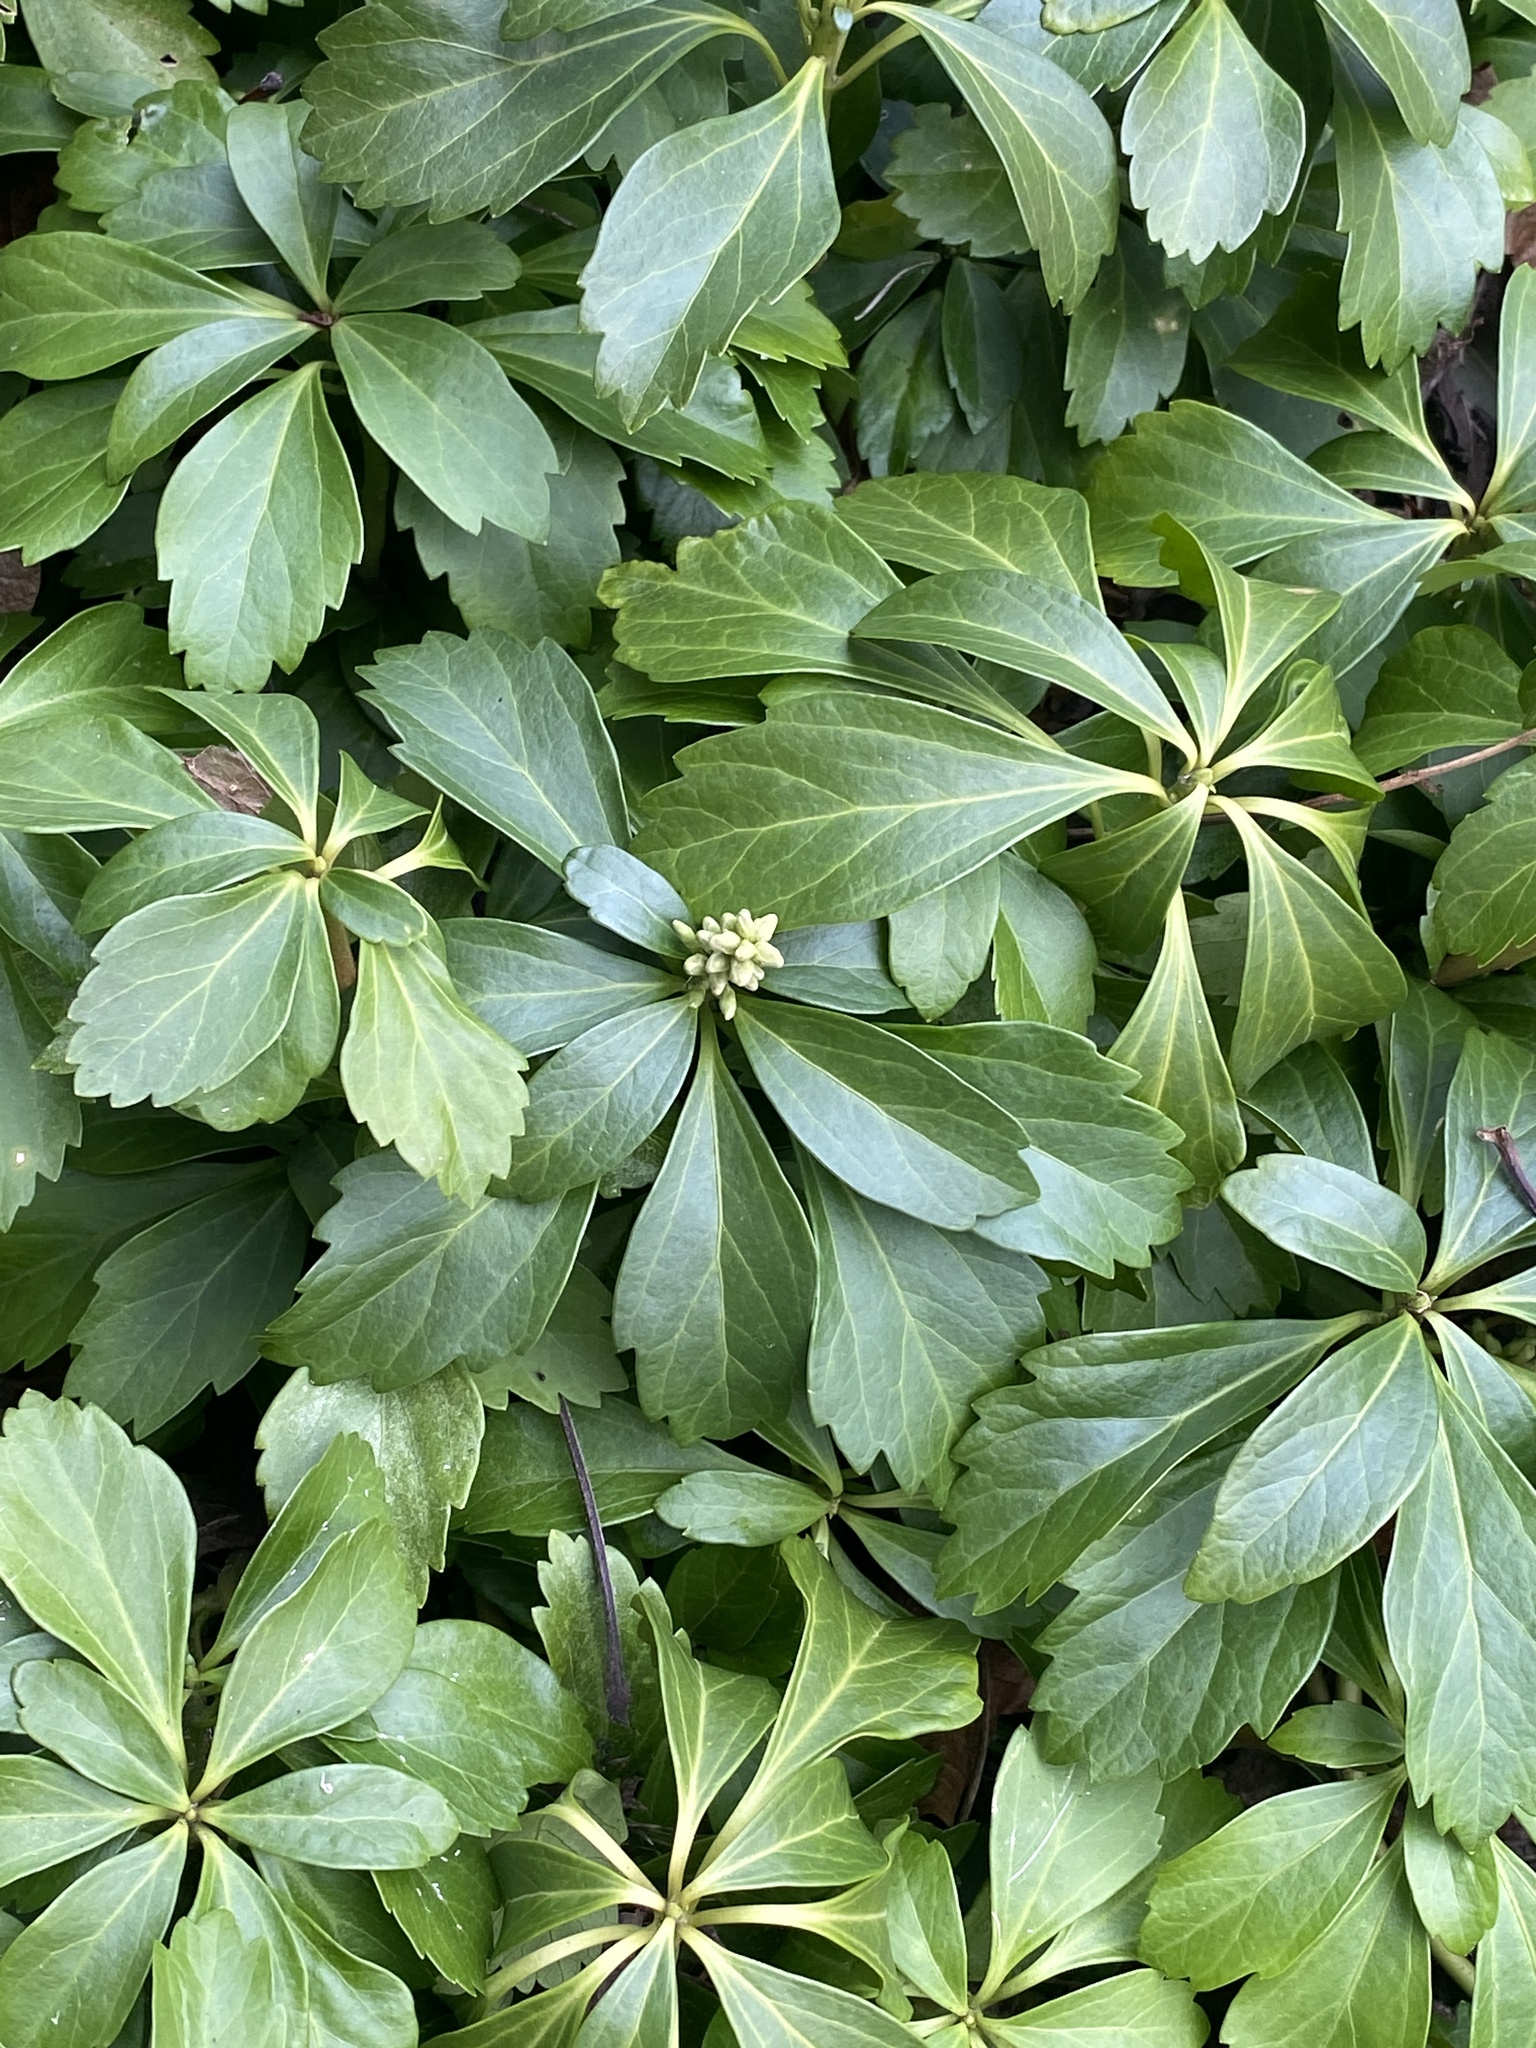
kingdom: Plantae
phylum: Tracheophyta
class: Magnoliopsida
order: Buxales
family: Buxaceae
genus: Pachysandra
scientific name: Pachysandra terminalis
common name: Japanese pachysandra
